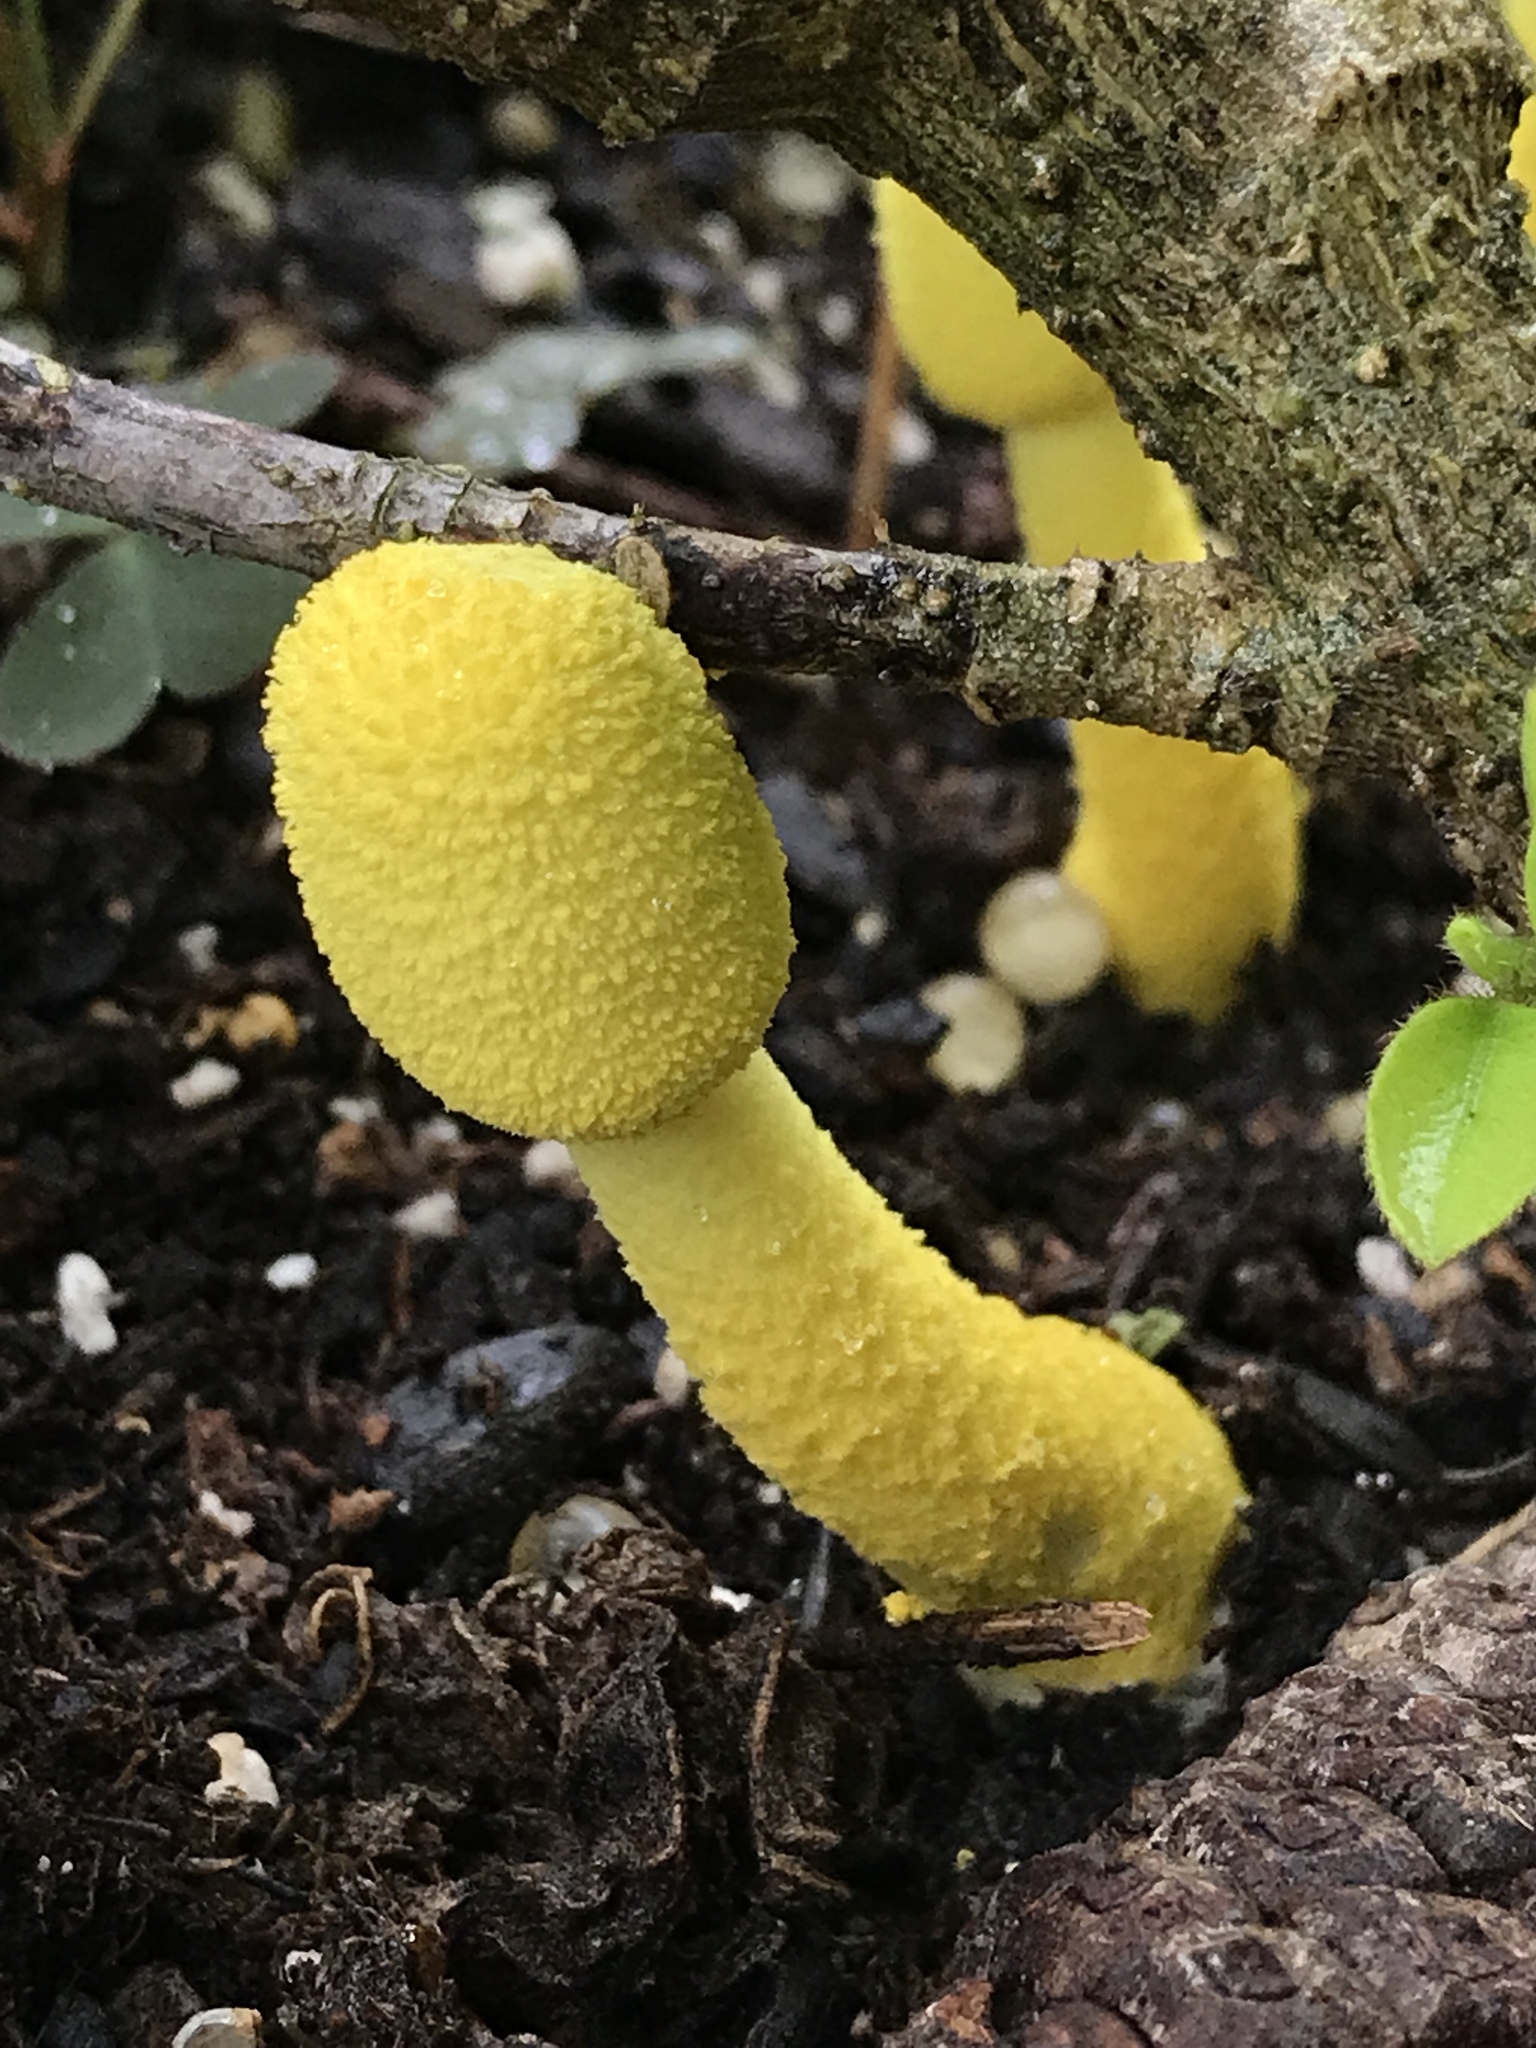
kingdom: Fungi
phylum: Basidiomycota
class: Agaricomycetes
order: Agaricales
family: Agaricaceae
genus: Leucocoprinus
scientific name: Leucocoprinus birnbaumii
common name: Plantpot dapperling
